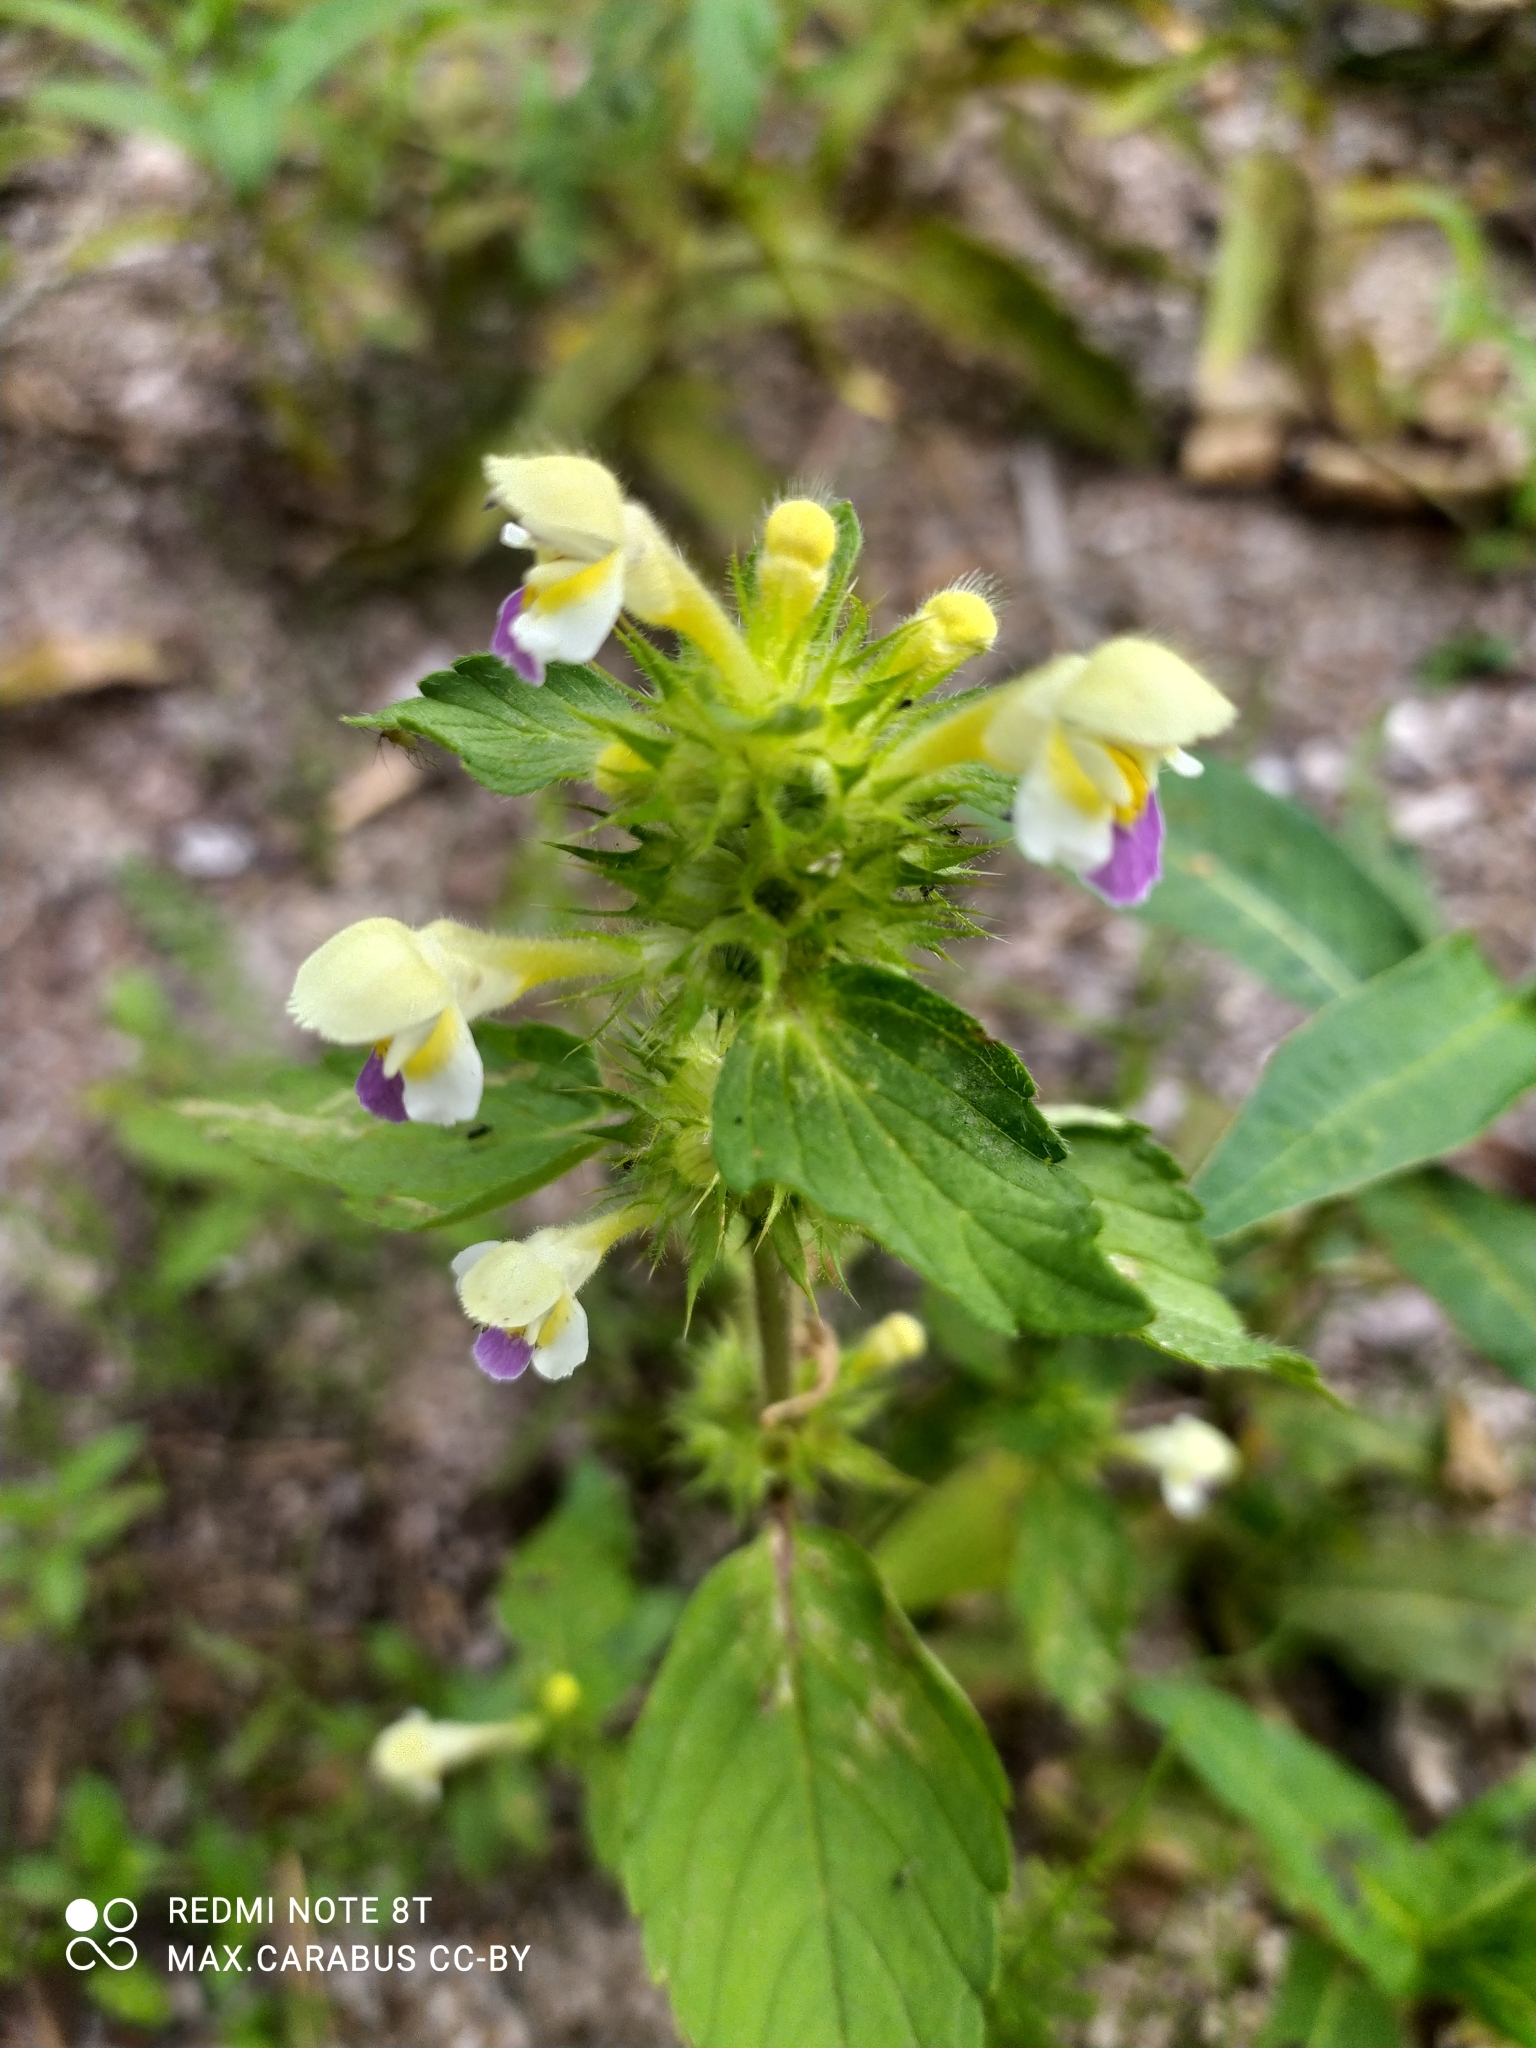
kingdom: Plantae
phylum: Tracheophyta
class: Magnoliopsida
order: Lamiales
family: Lamiaceae
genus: Galeopsis
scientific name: Galeopsis speciosa
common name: Large-flowered hemp-nettle
